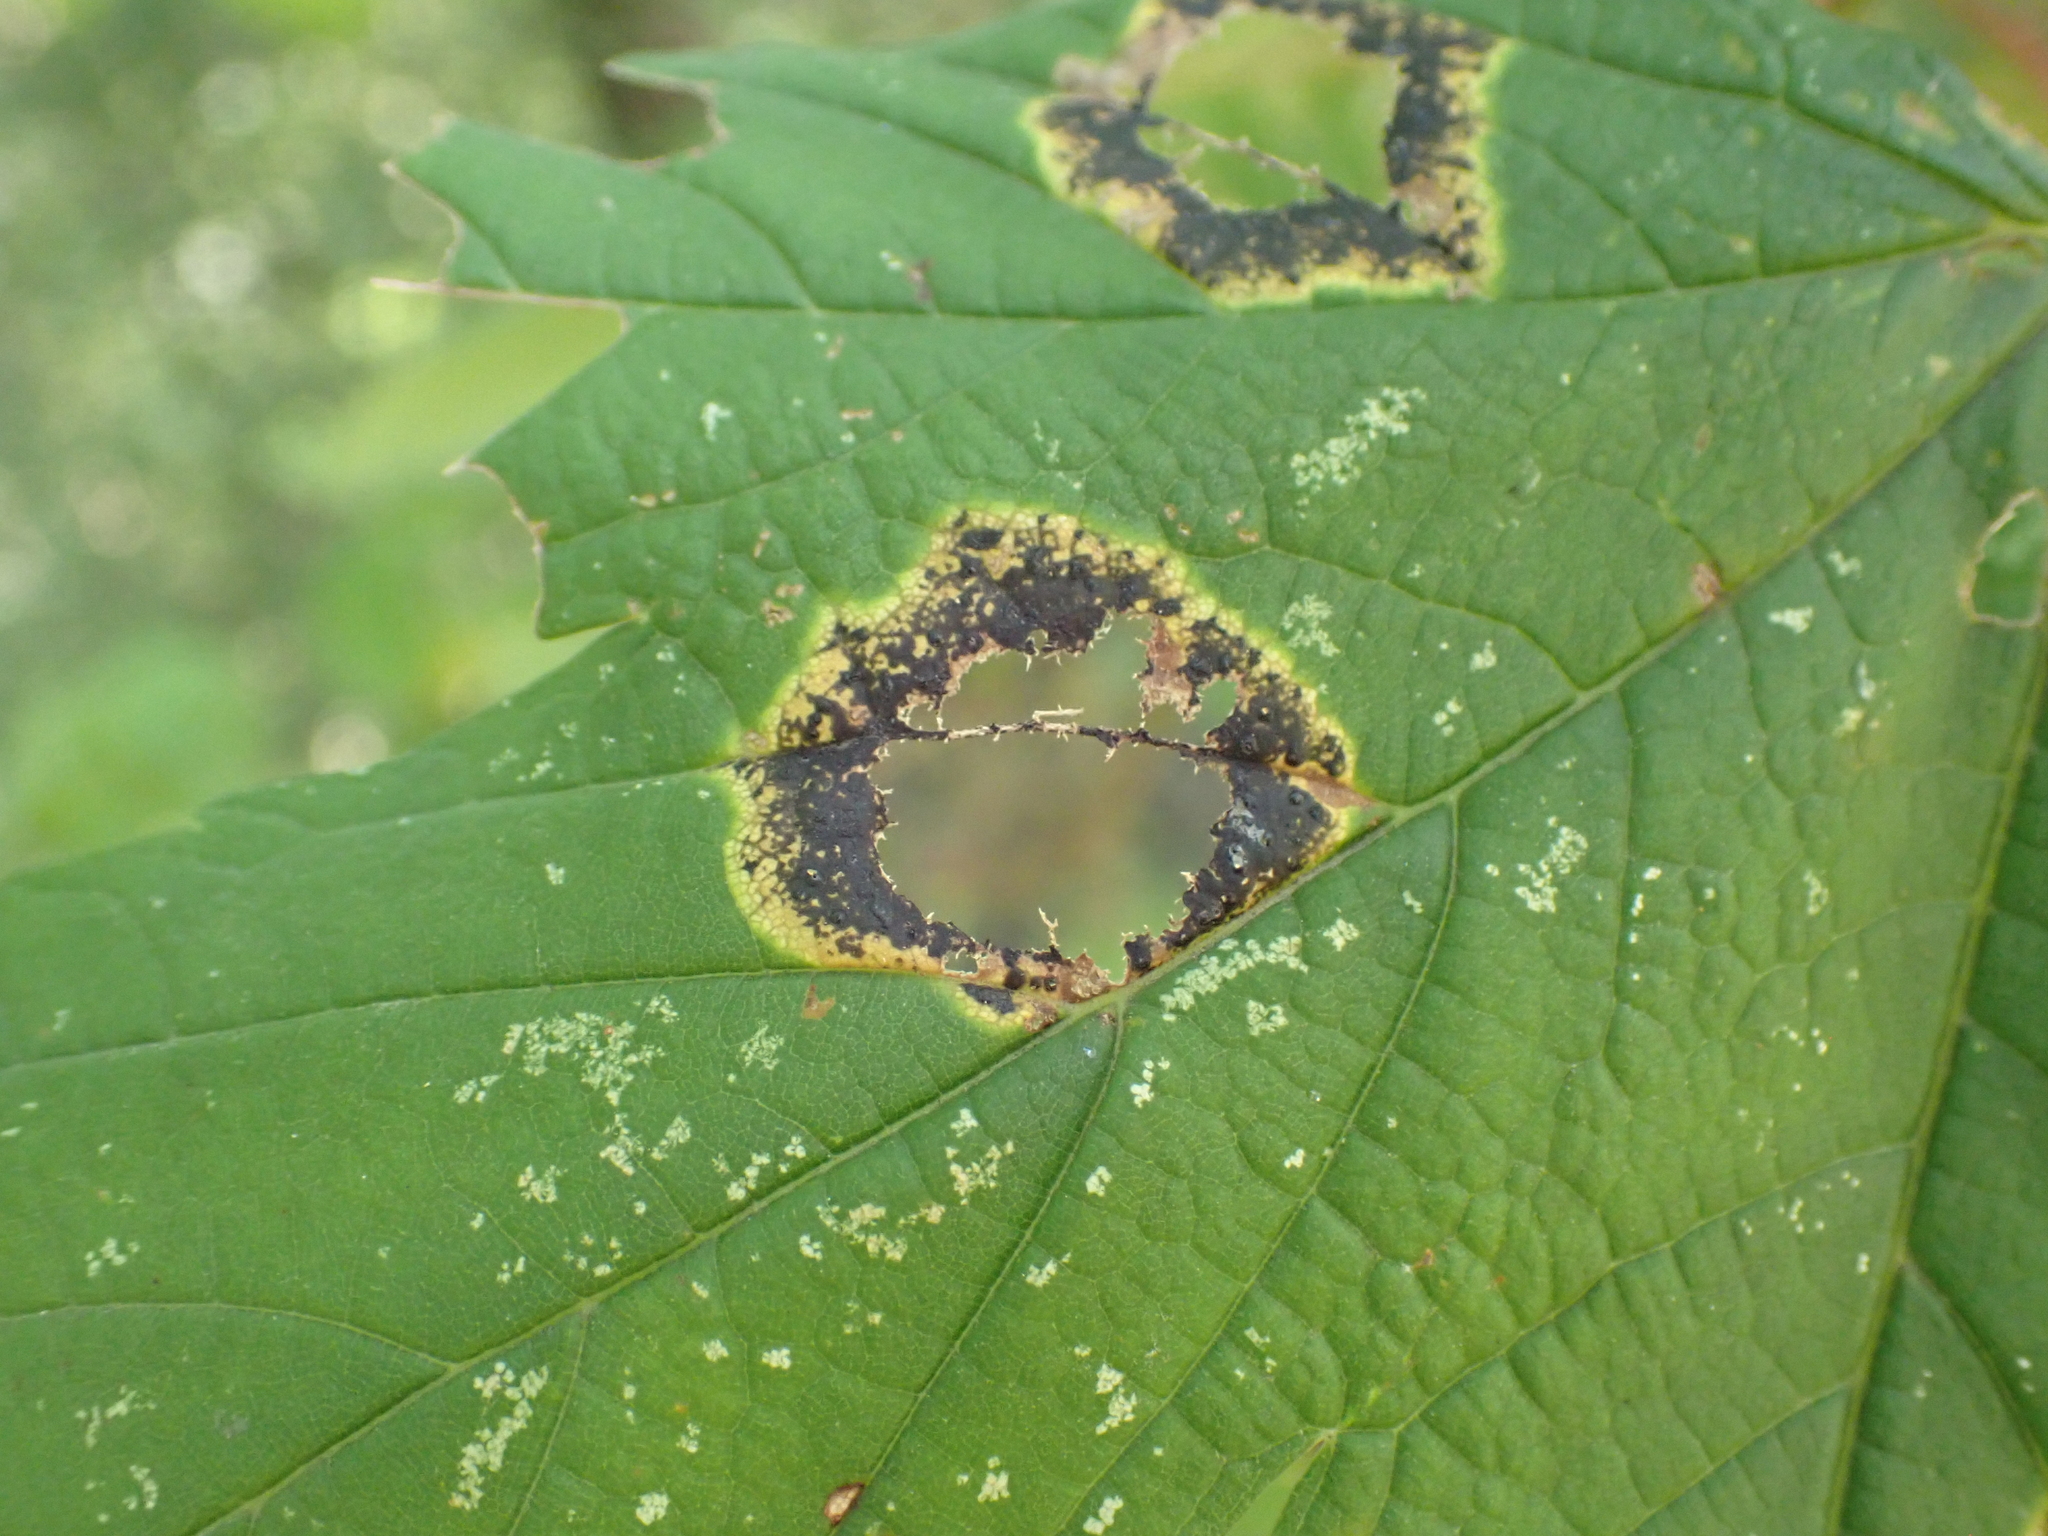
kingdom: Fungi
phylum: Ascomycota
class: Leotiomycetes
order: Rhytismatales
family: Rhytismataceae
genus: Rhytisma
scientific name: Rhytisma acerinum
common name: European tar spot
